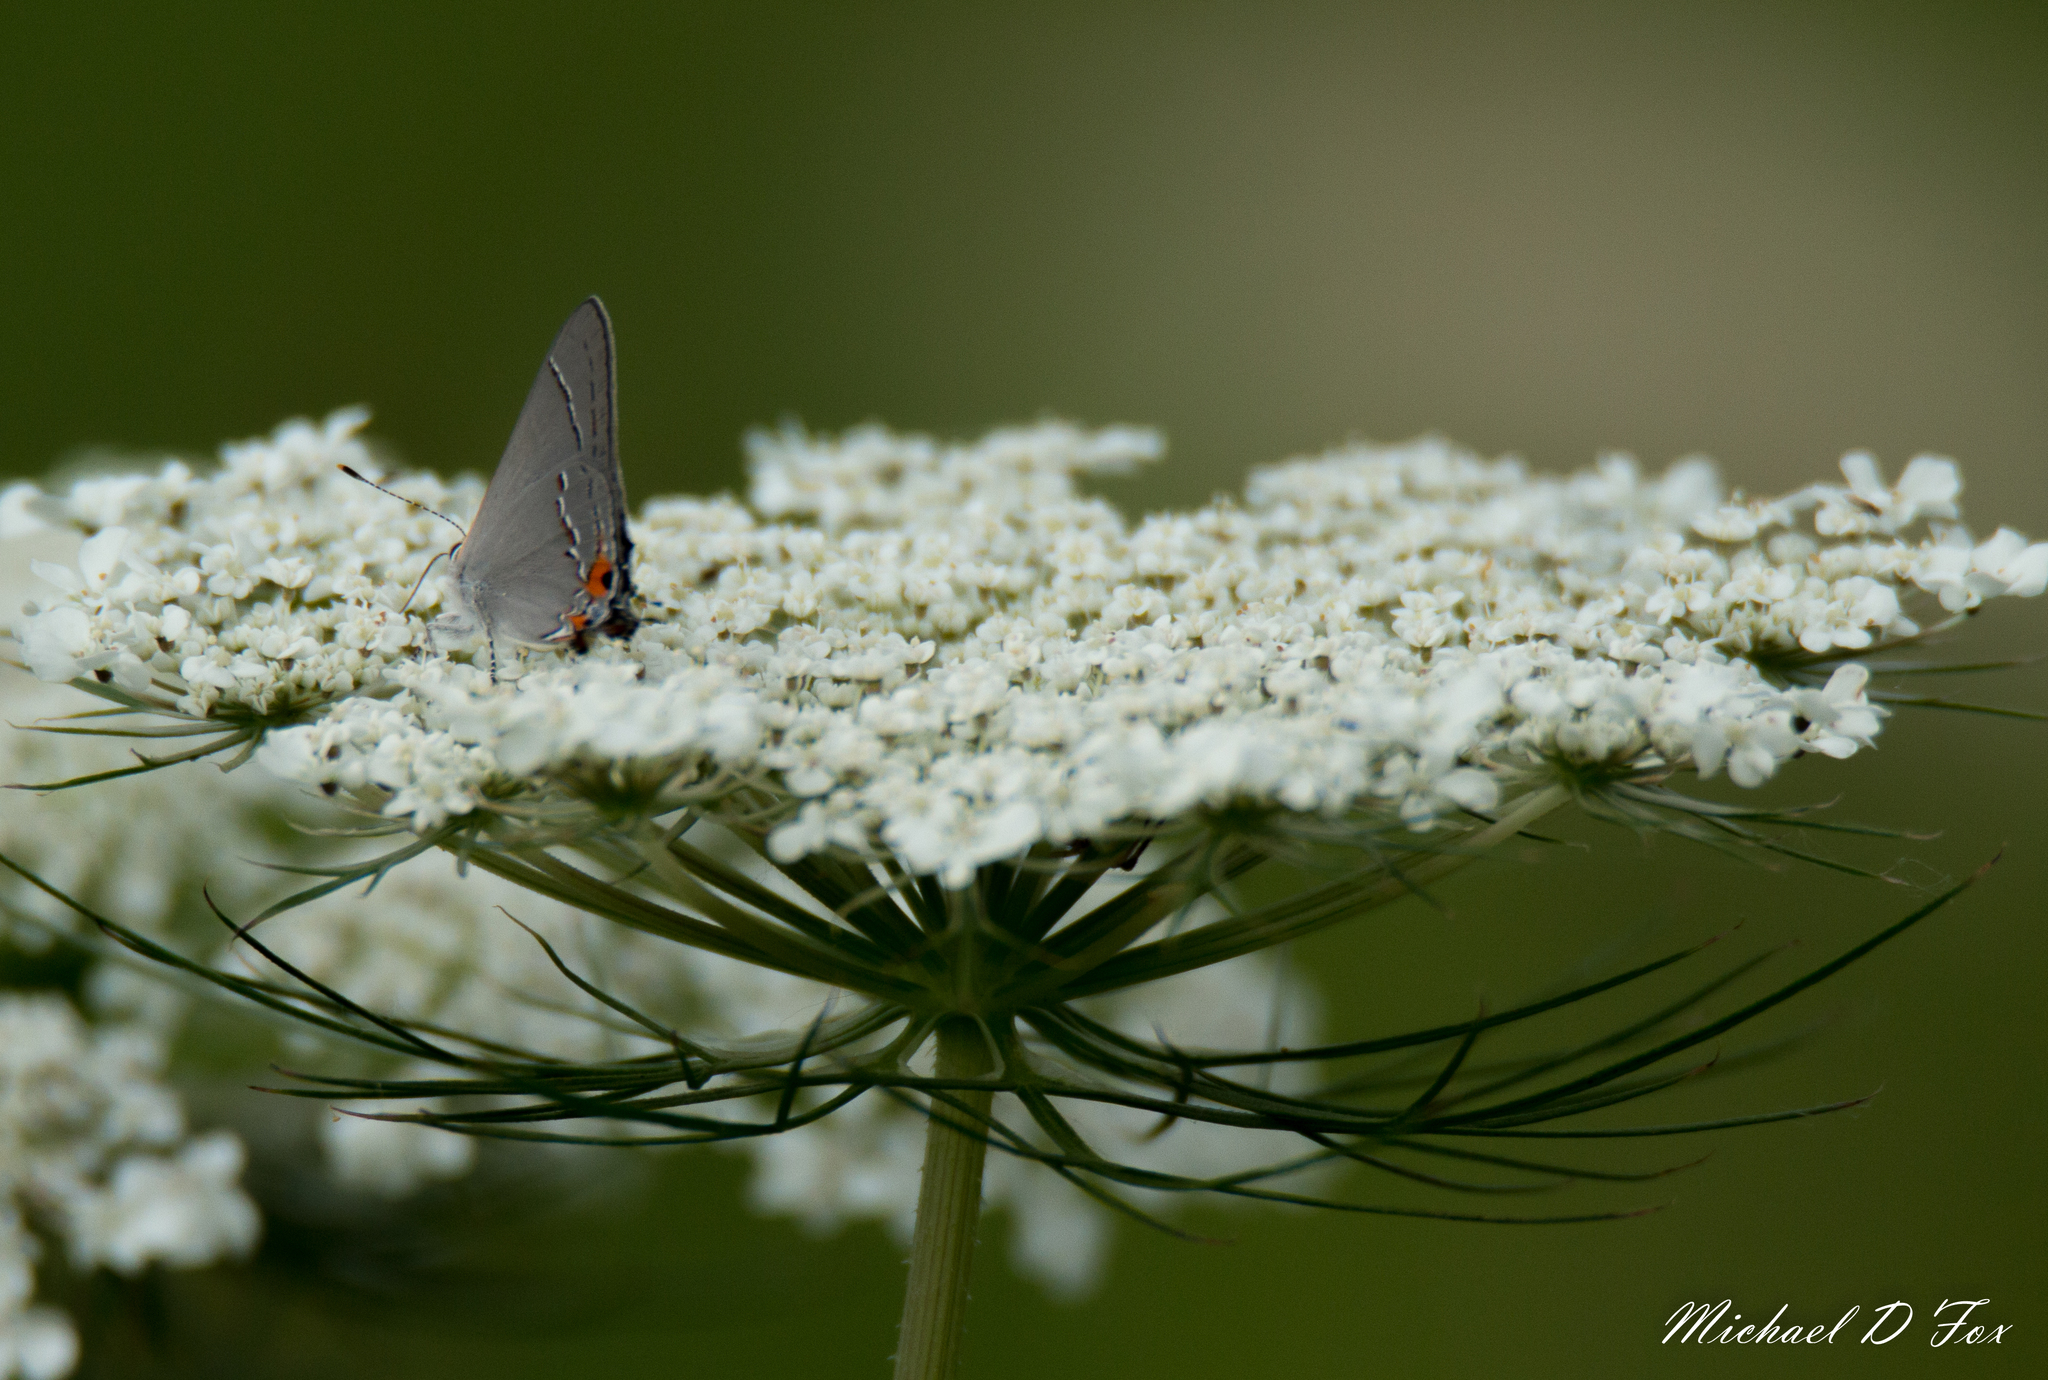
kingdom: Animalia
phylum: Arthropoda
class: Insecta
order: Lepidoptera
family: Lycaenidae
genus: Strymon
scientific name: Strymon melinus
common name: Gray hairstreak
